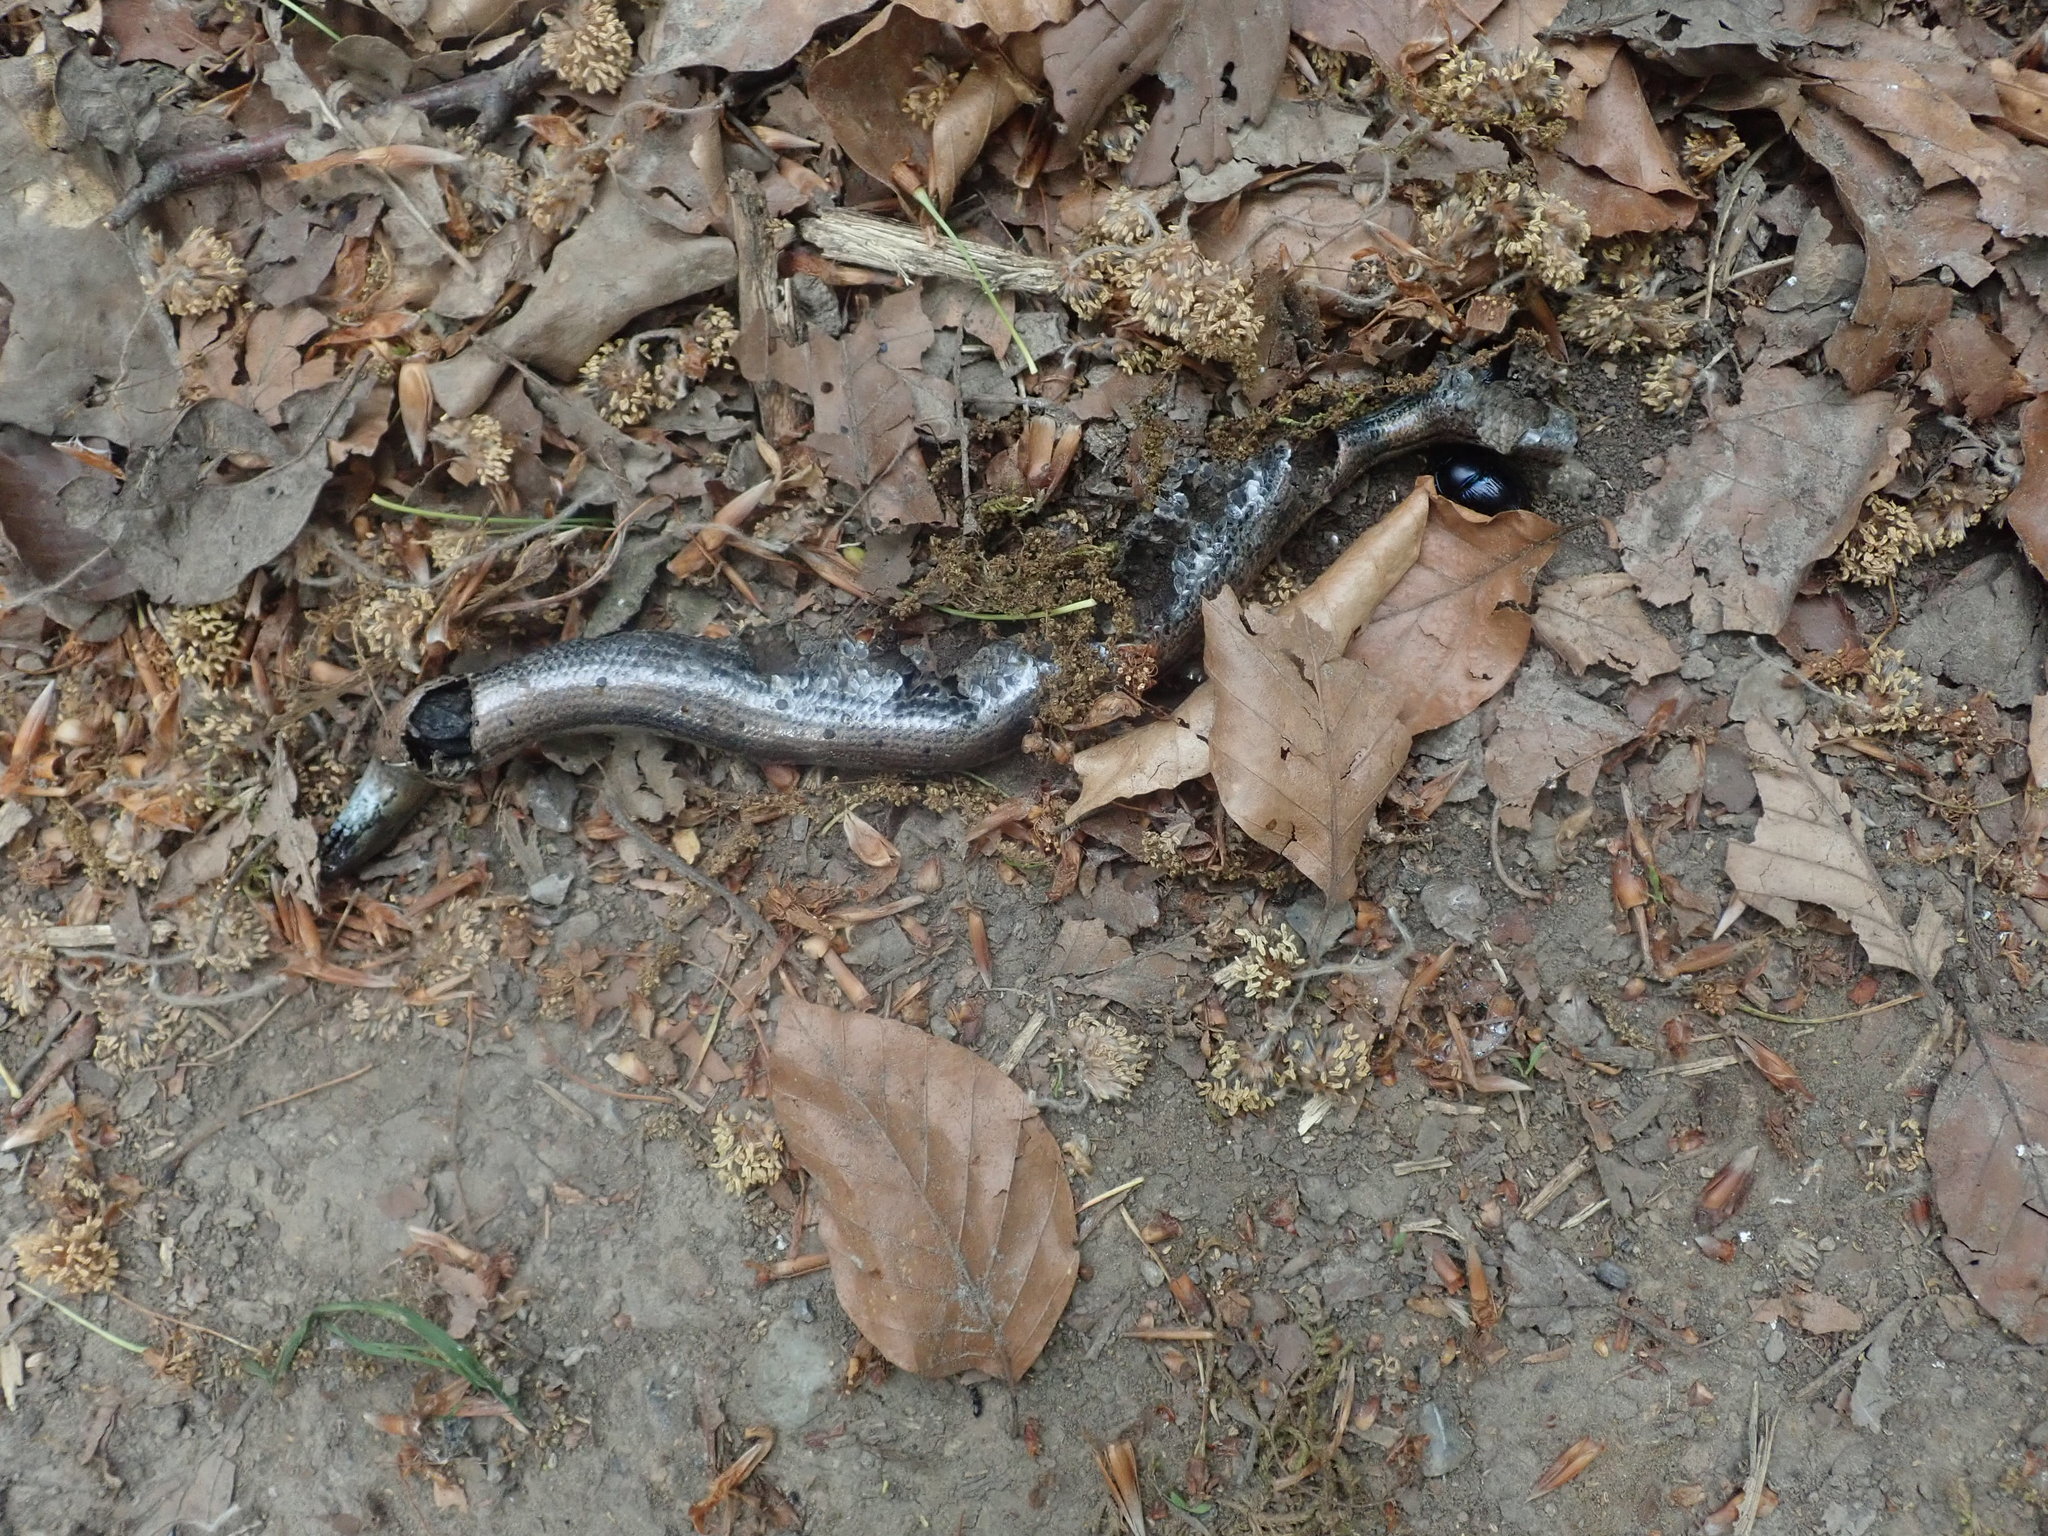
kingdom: Animalia
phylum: Chordata
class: Squamata
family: Anguidae
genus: Anguis
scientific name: Anguis fragilis
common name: Slow worm
